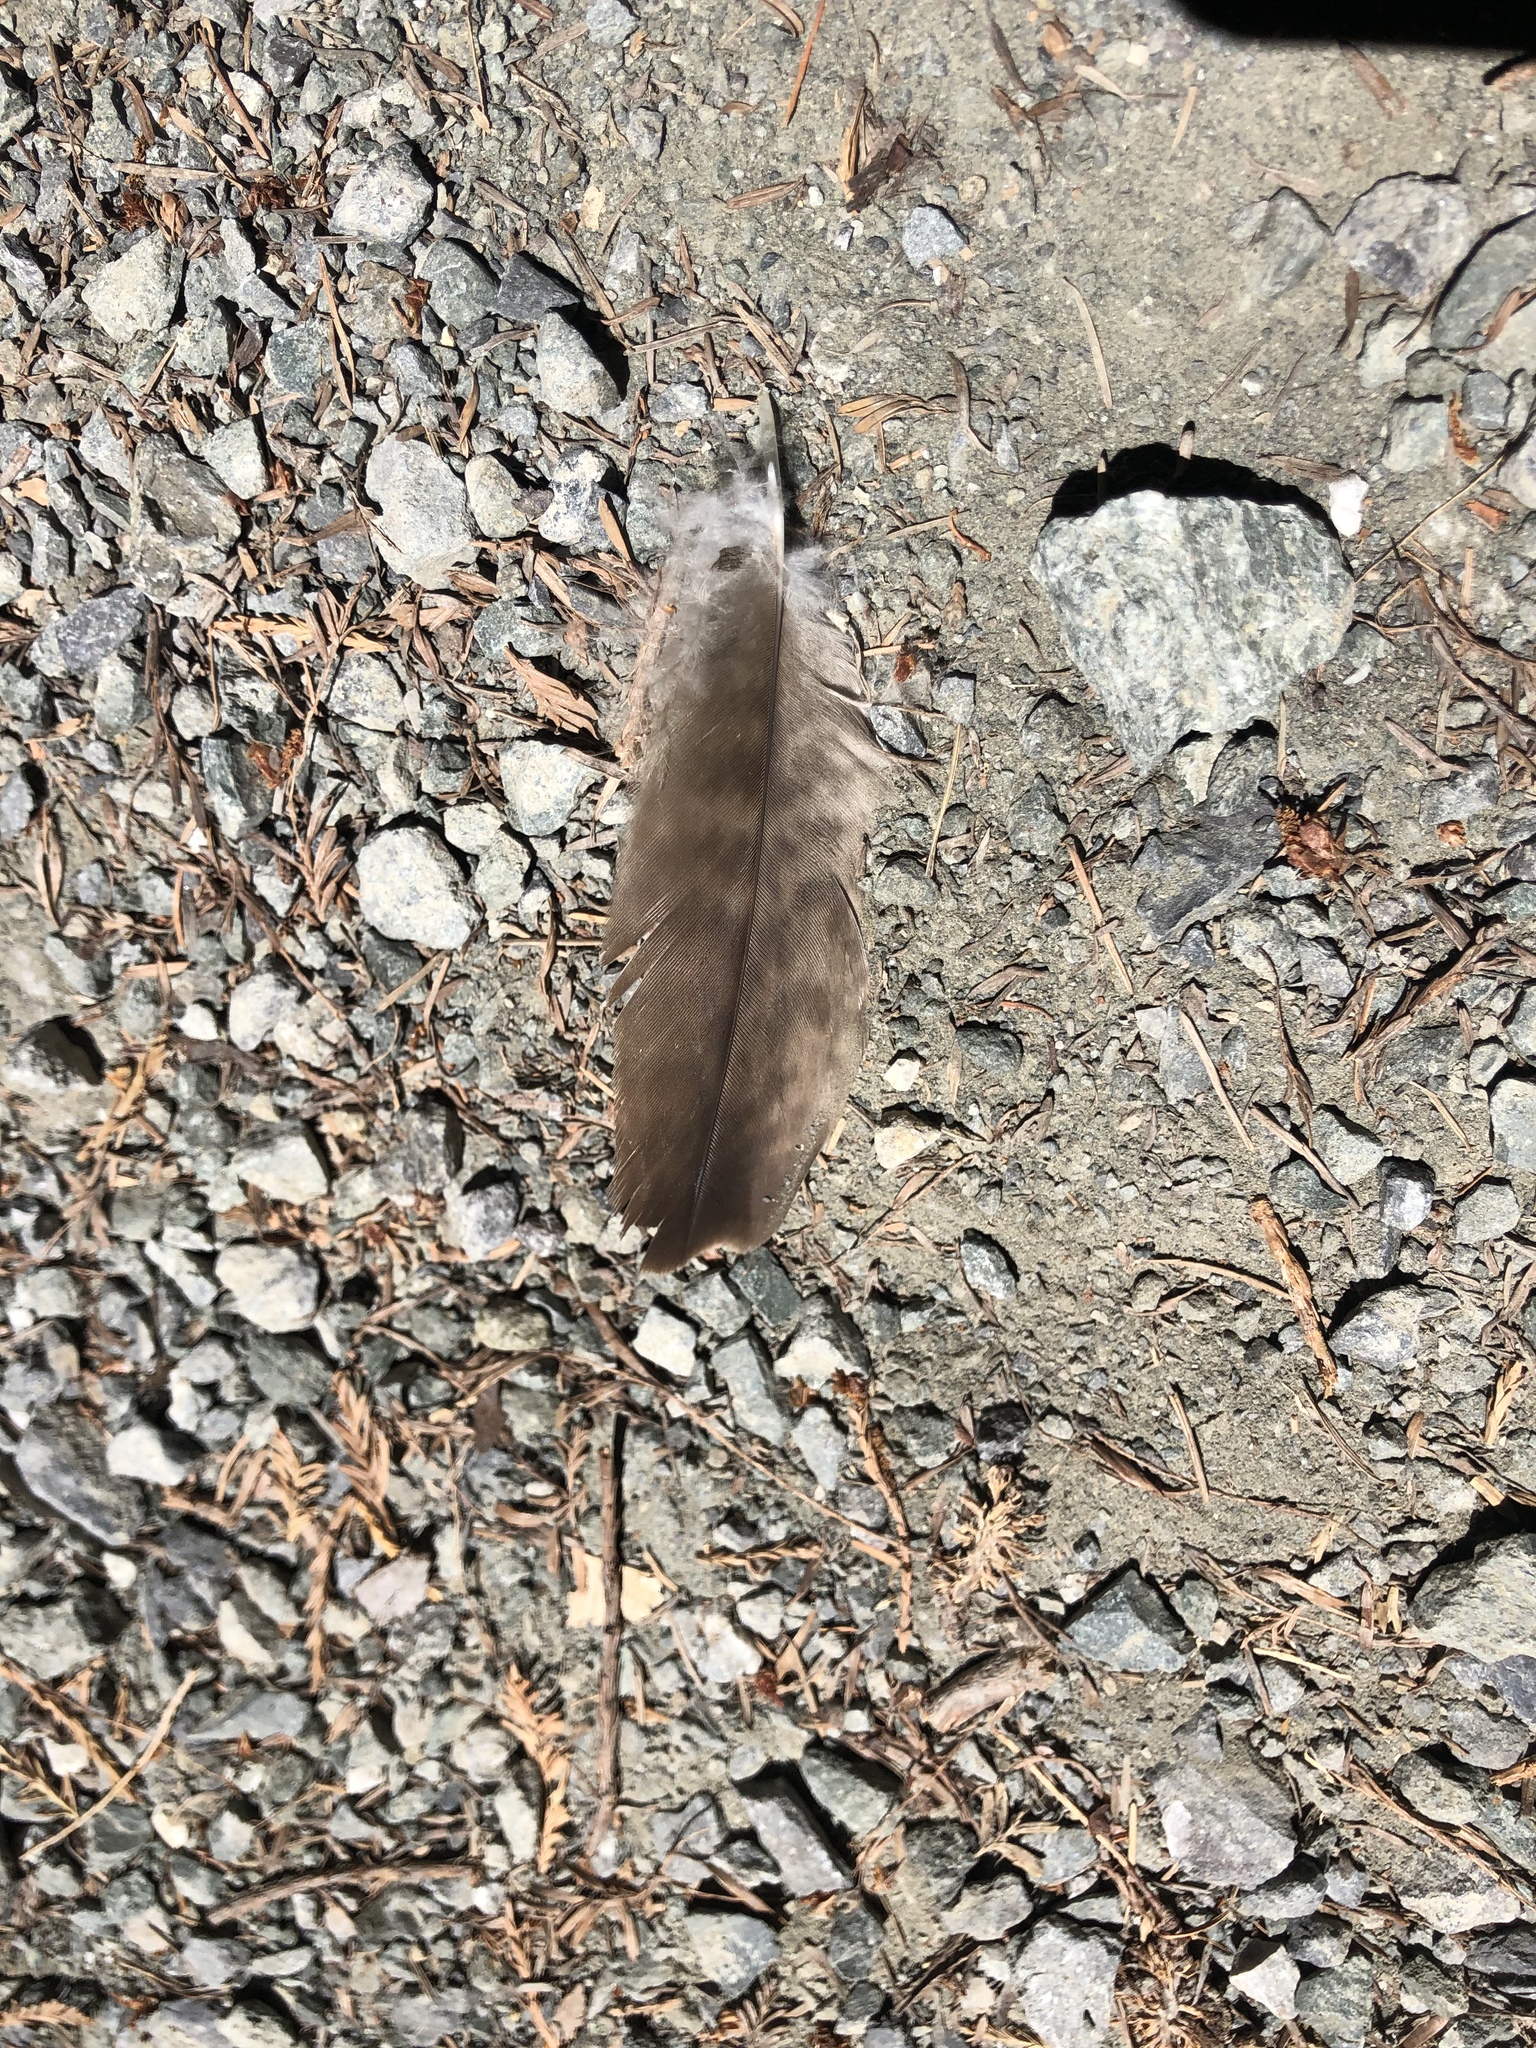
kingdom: Animalia
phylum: Chordata
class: Aves
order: Accipitriformes
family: Accipitridae
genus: Buteo
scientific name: Buteo jamaicensis
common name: Red-tailed hawk
